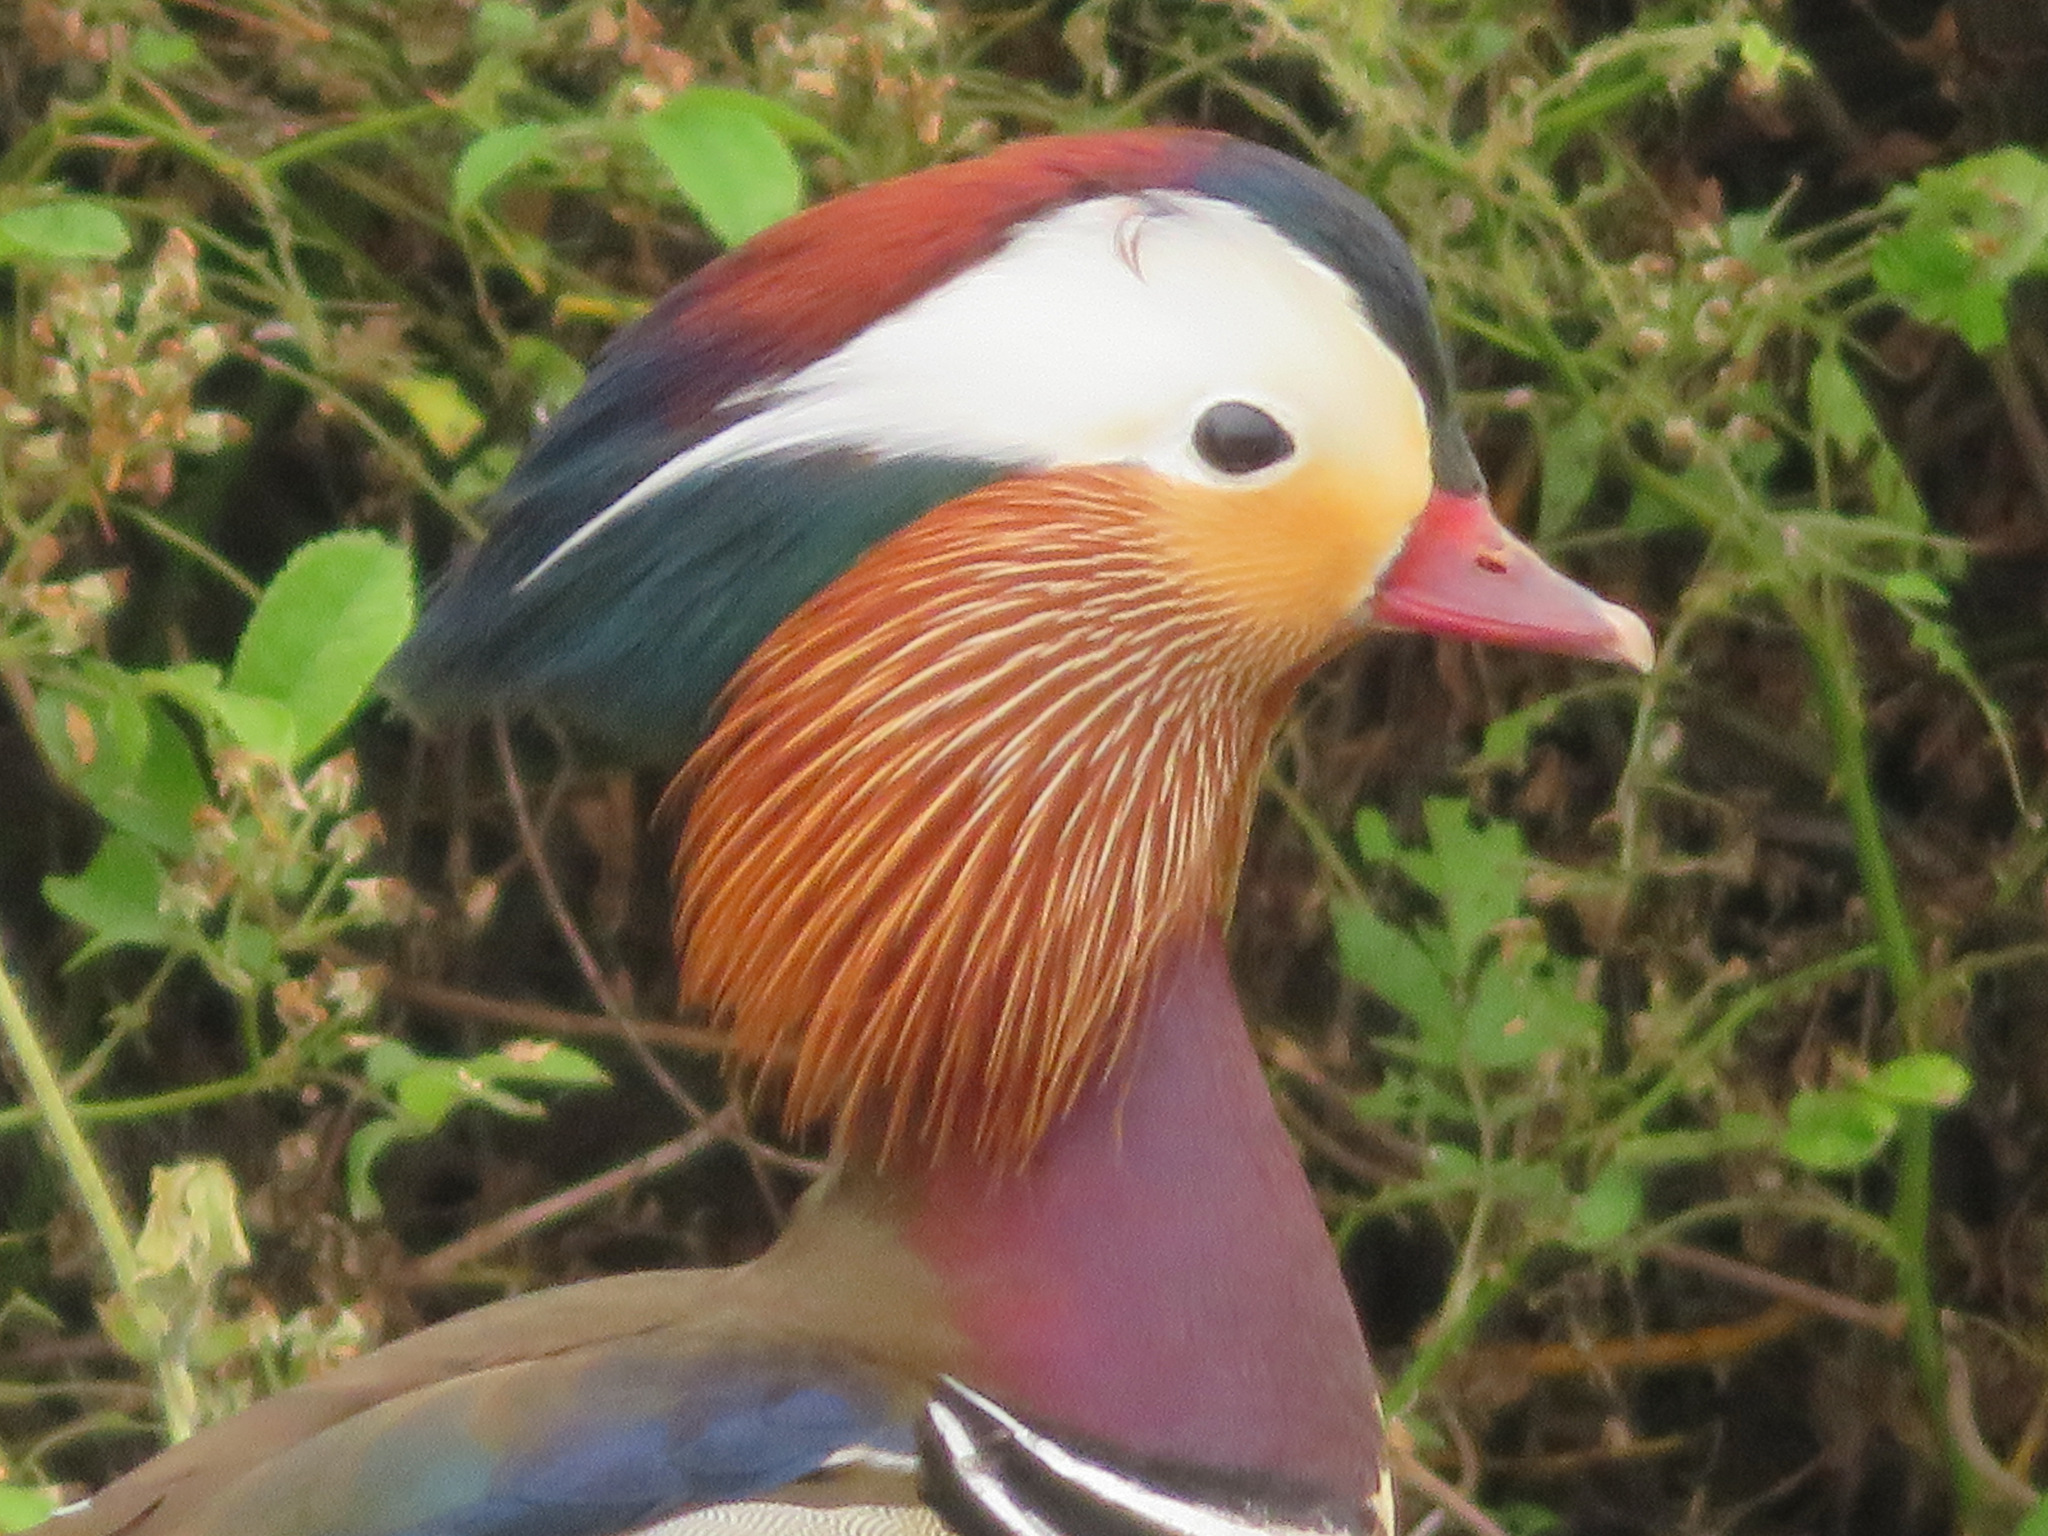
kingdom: Animalia
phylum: Chordata
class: Aves
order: Anseriformes
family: Anatidae
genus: Aix
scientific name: Aix galericulata
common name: Mandarin duck
